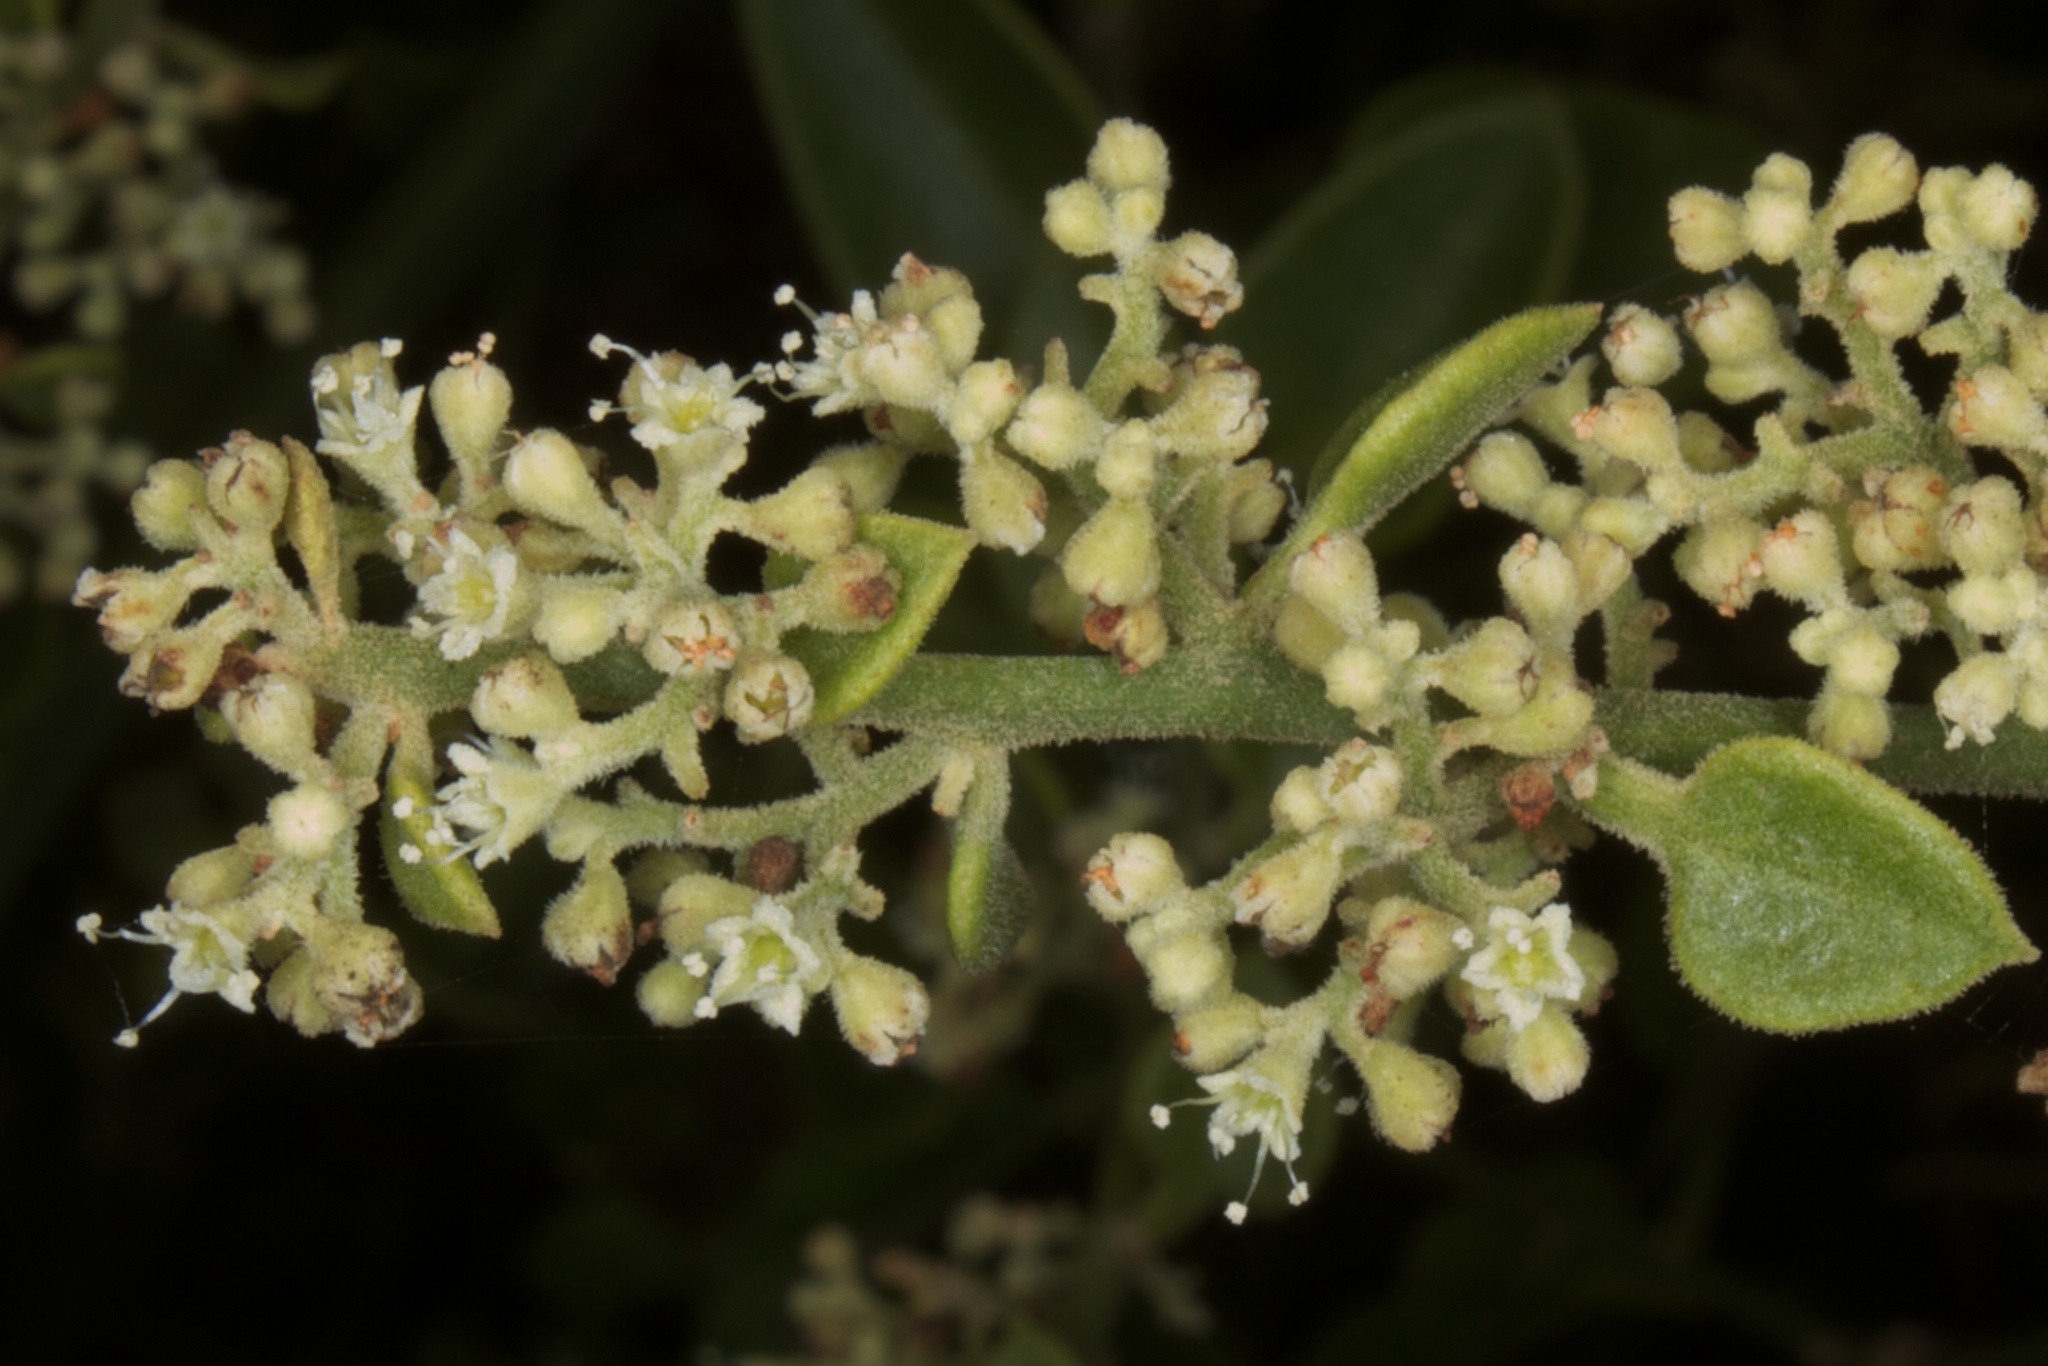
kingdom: Plantae
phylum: Tracheophyta
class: Magnoliopsida
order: Caryophyllales
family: Nyctaginaceae
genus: Cryptocarpus
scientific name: Cryptocarpus pyriformis
